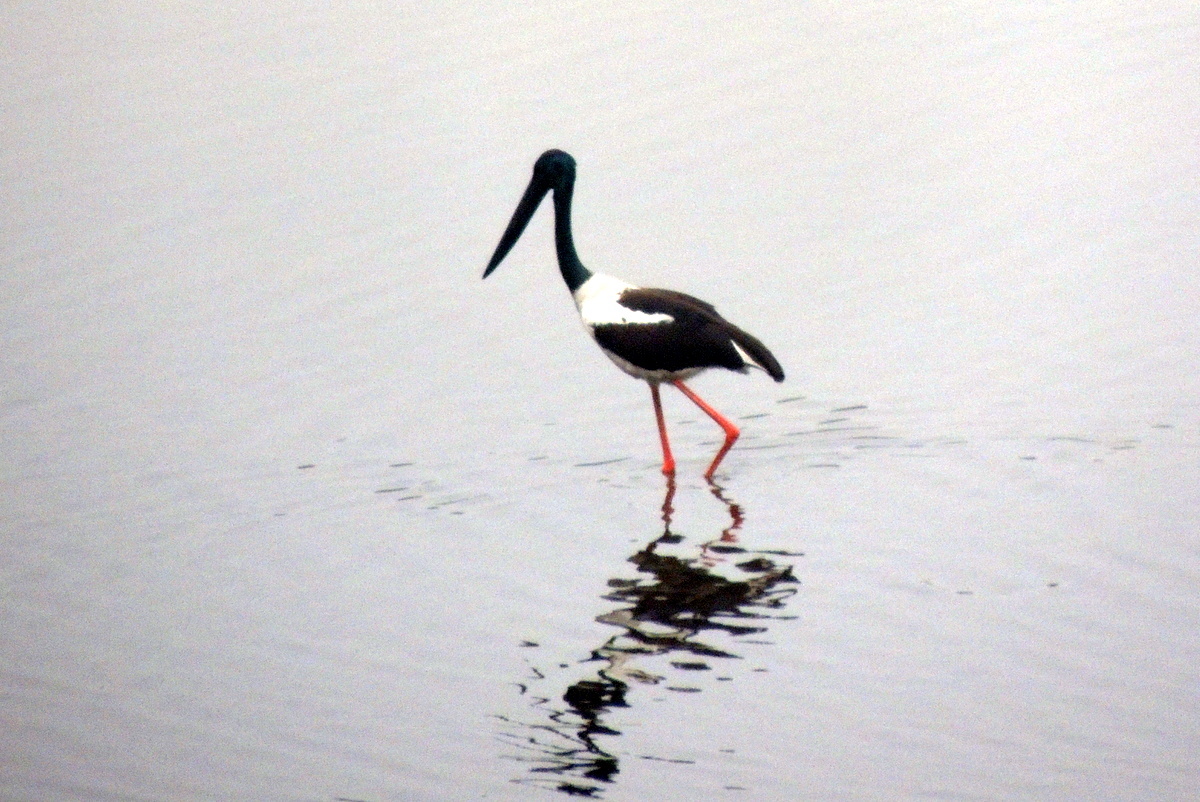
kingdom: Animalia
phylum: Chordata
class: Aves
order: Ciconiiformes
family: Ciconiidae
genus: Ephippiorhynchus
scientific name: Ephippiorhynchus asiaticus
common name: Black-necked stork
